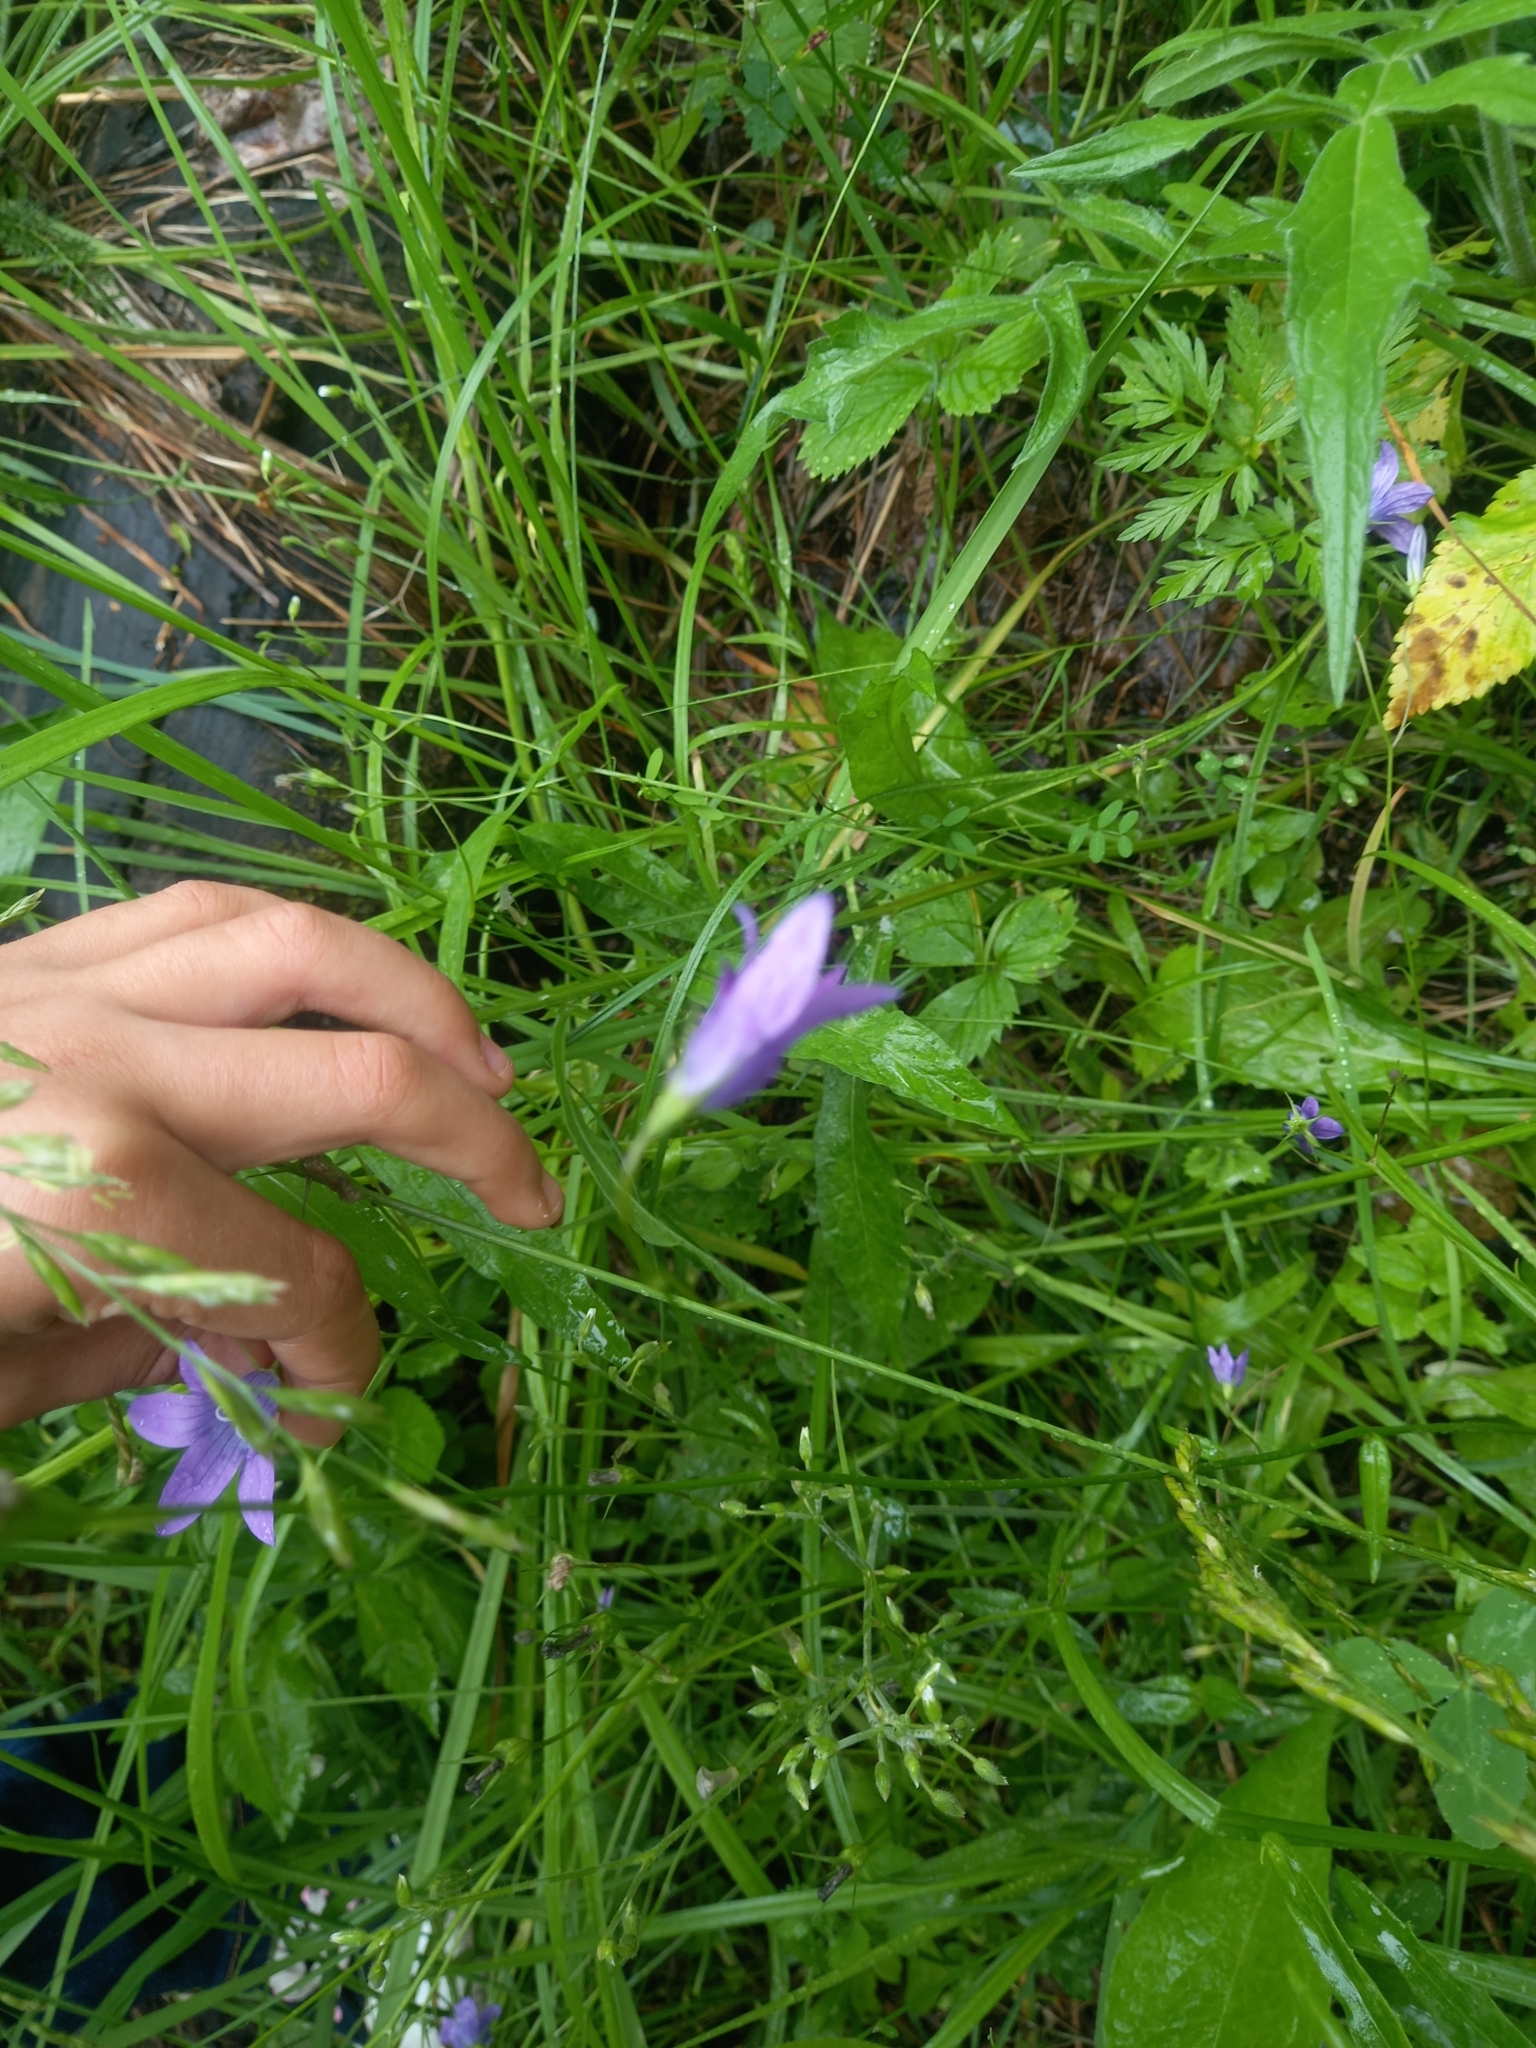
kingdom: Plantae
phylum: Tracheophyta
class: Magnoliopsida
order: Asterales
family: Campanulaceae
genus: Campanula
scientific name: Campanula patula
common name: Spreading bellflower
